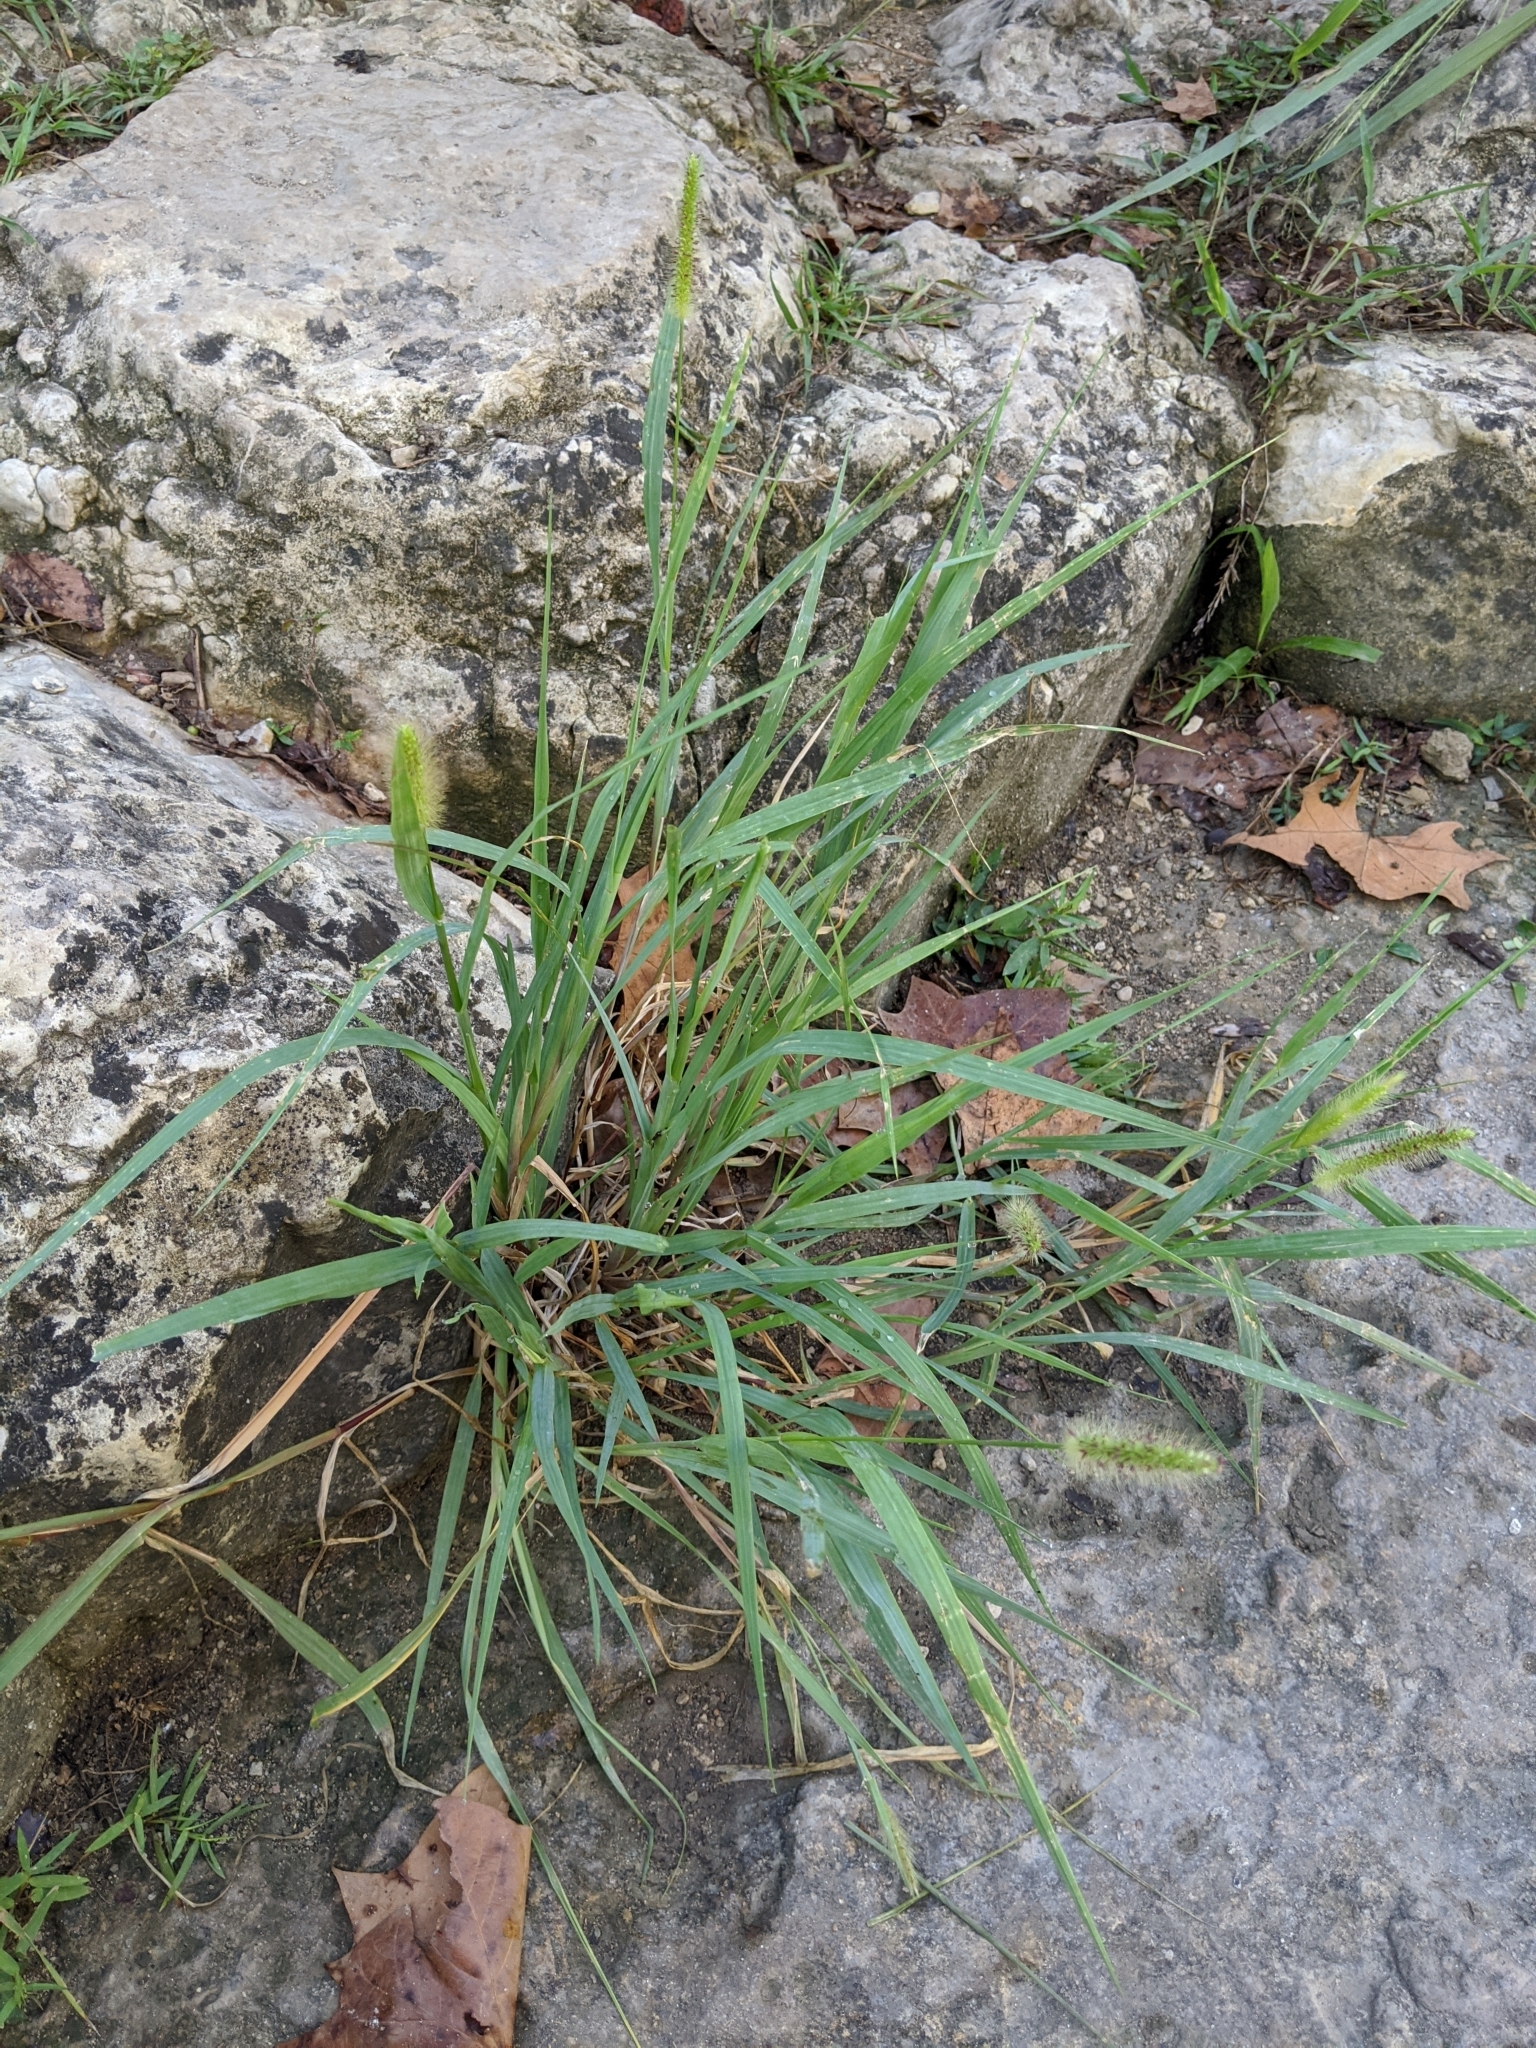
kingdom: Plantae
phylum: Tracheophyta
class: Liliopsida
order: Poales
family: Poaceae
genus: Setaria
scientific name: Setaria parviflora
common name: Knotroot bristle-grass
